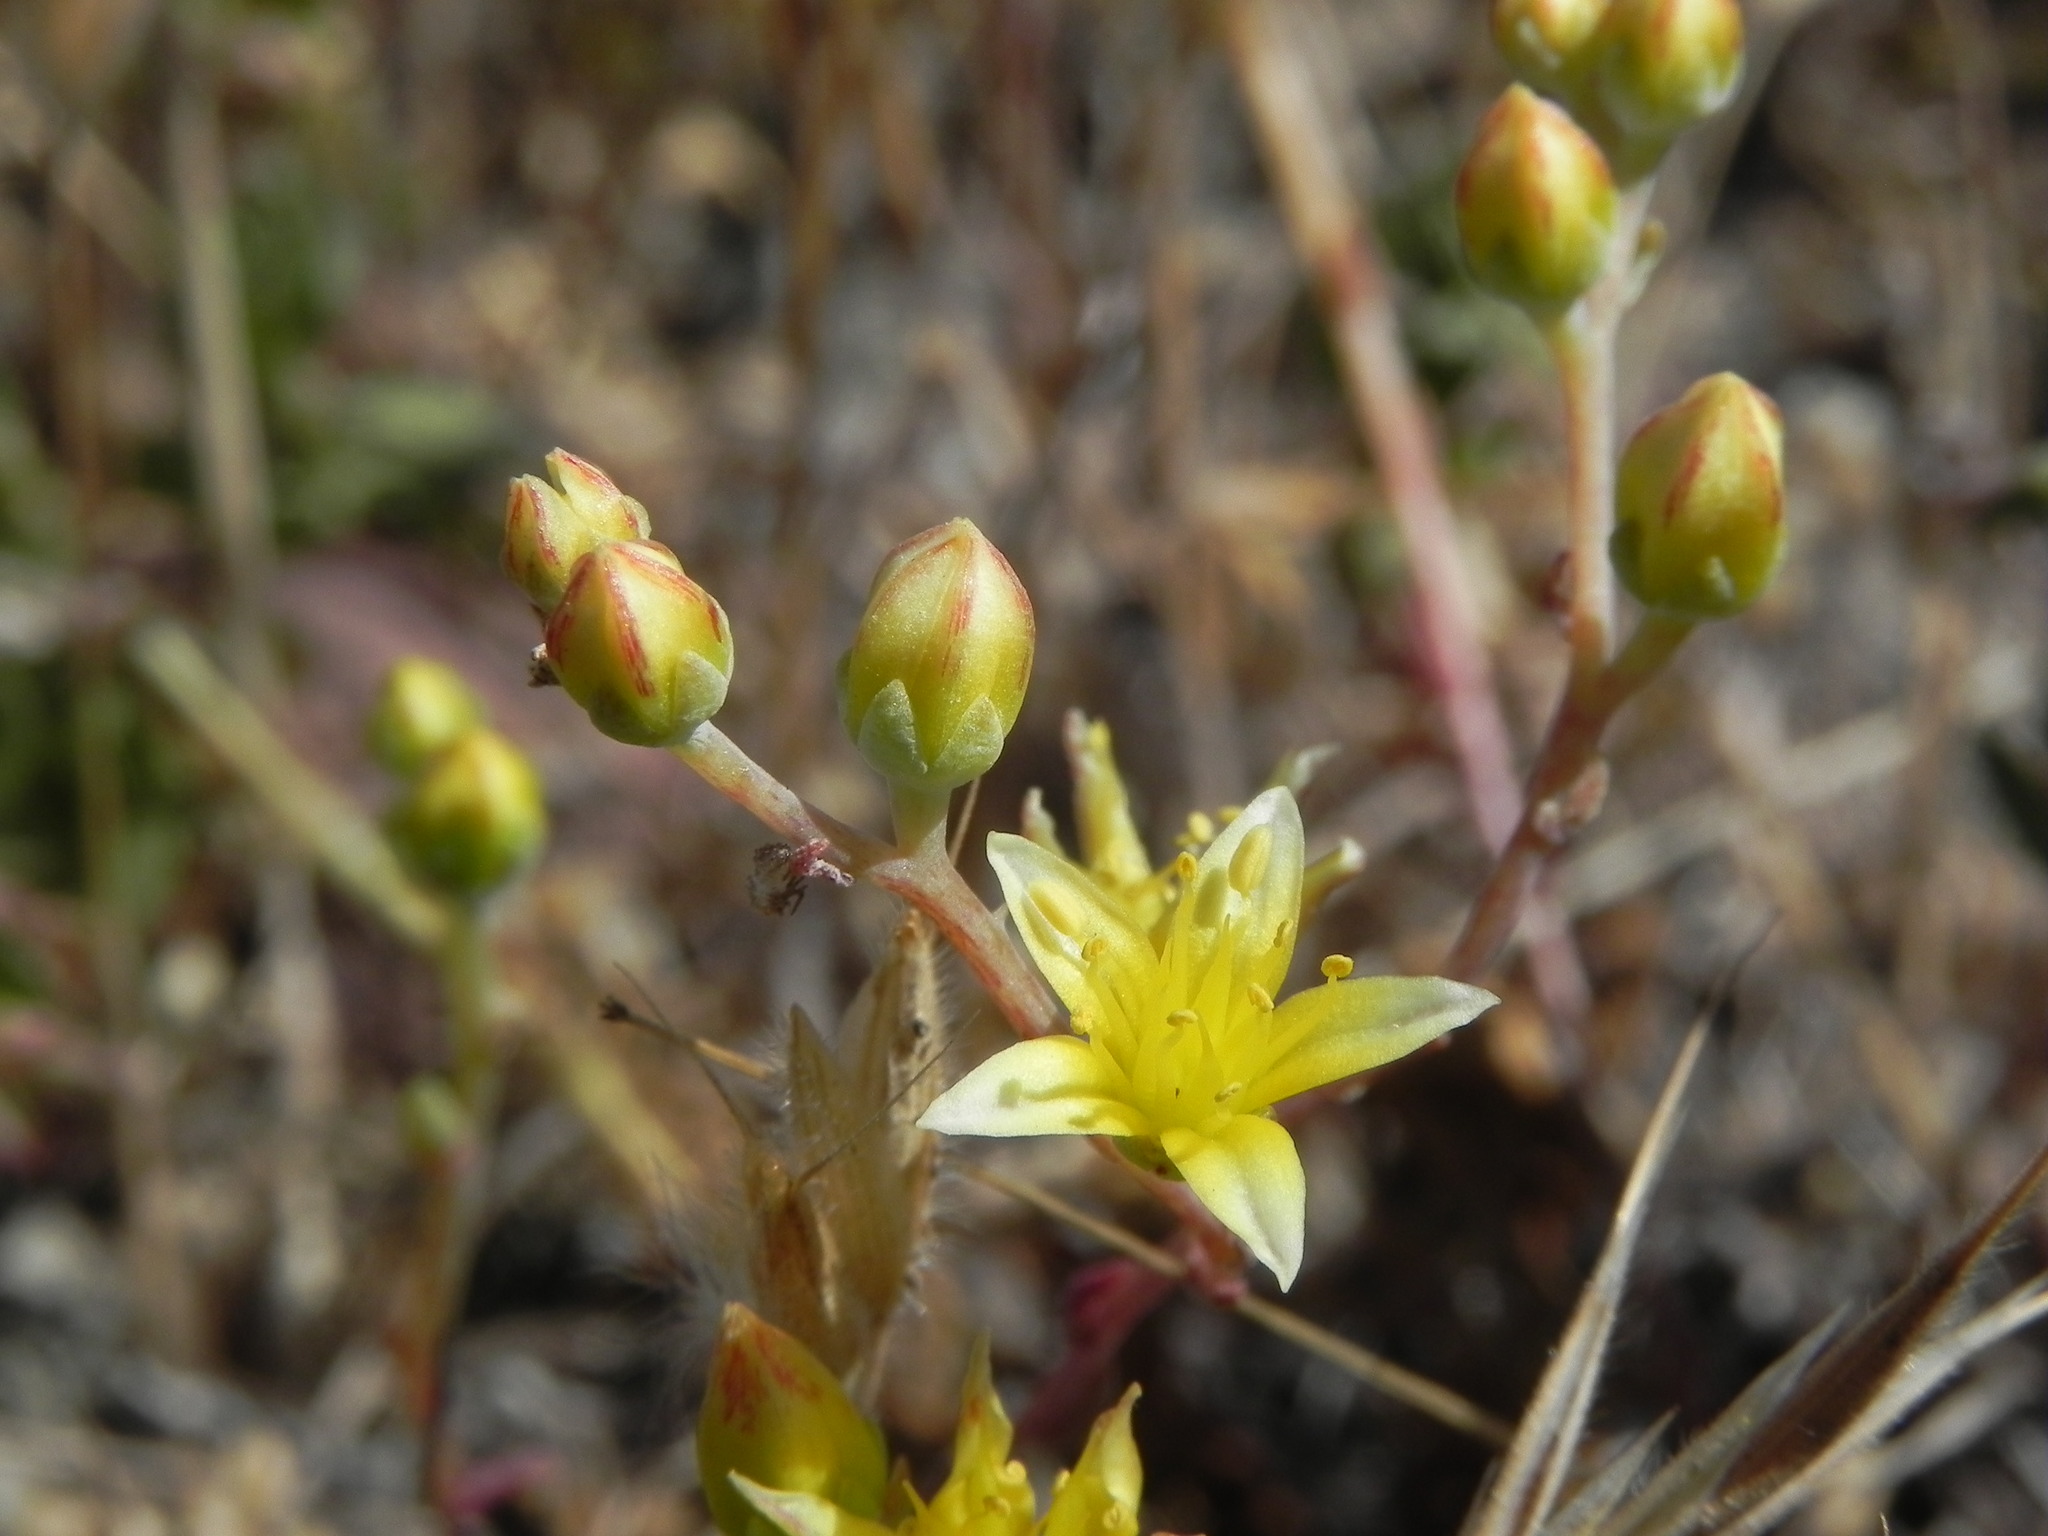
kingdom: Plantae
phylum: Tracheophyta
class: Magnoliopsida
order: Saxifragales
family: Crassulaceae
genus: Dudleya
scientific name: Dudleya variegata
